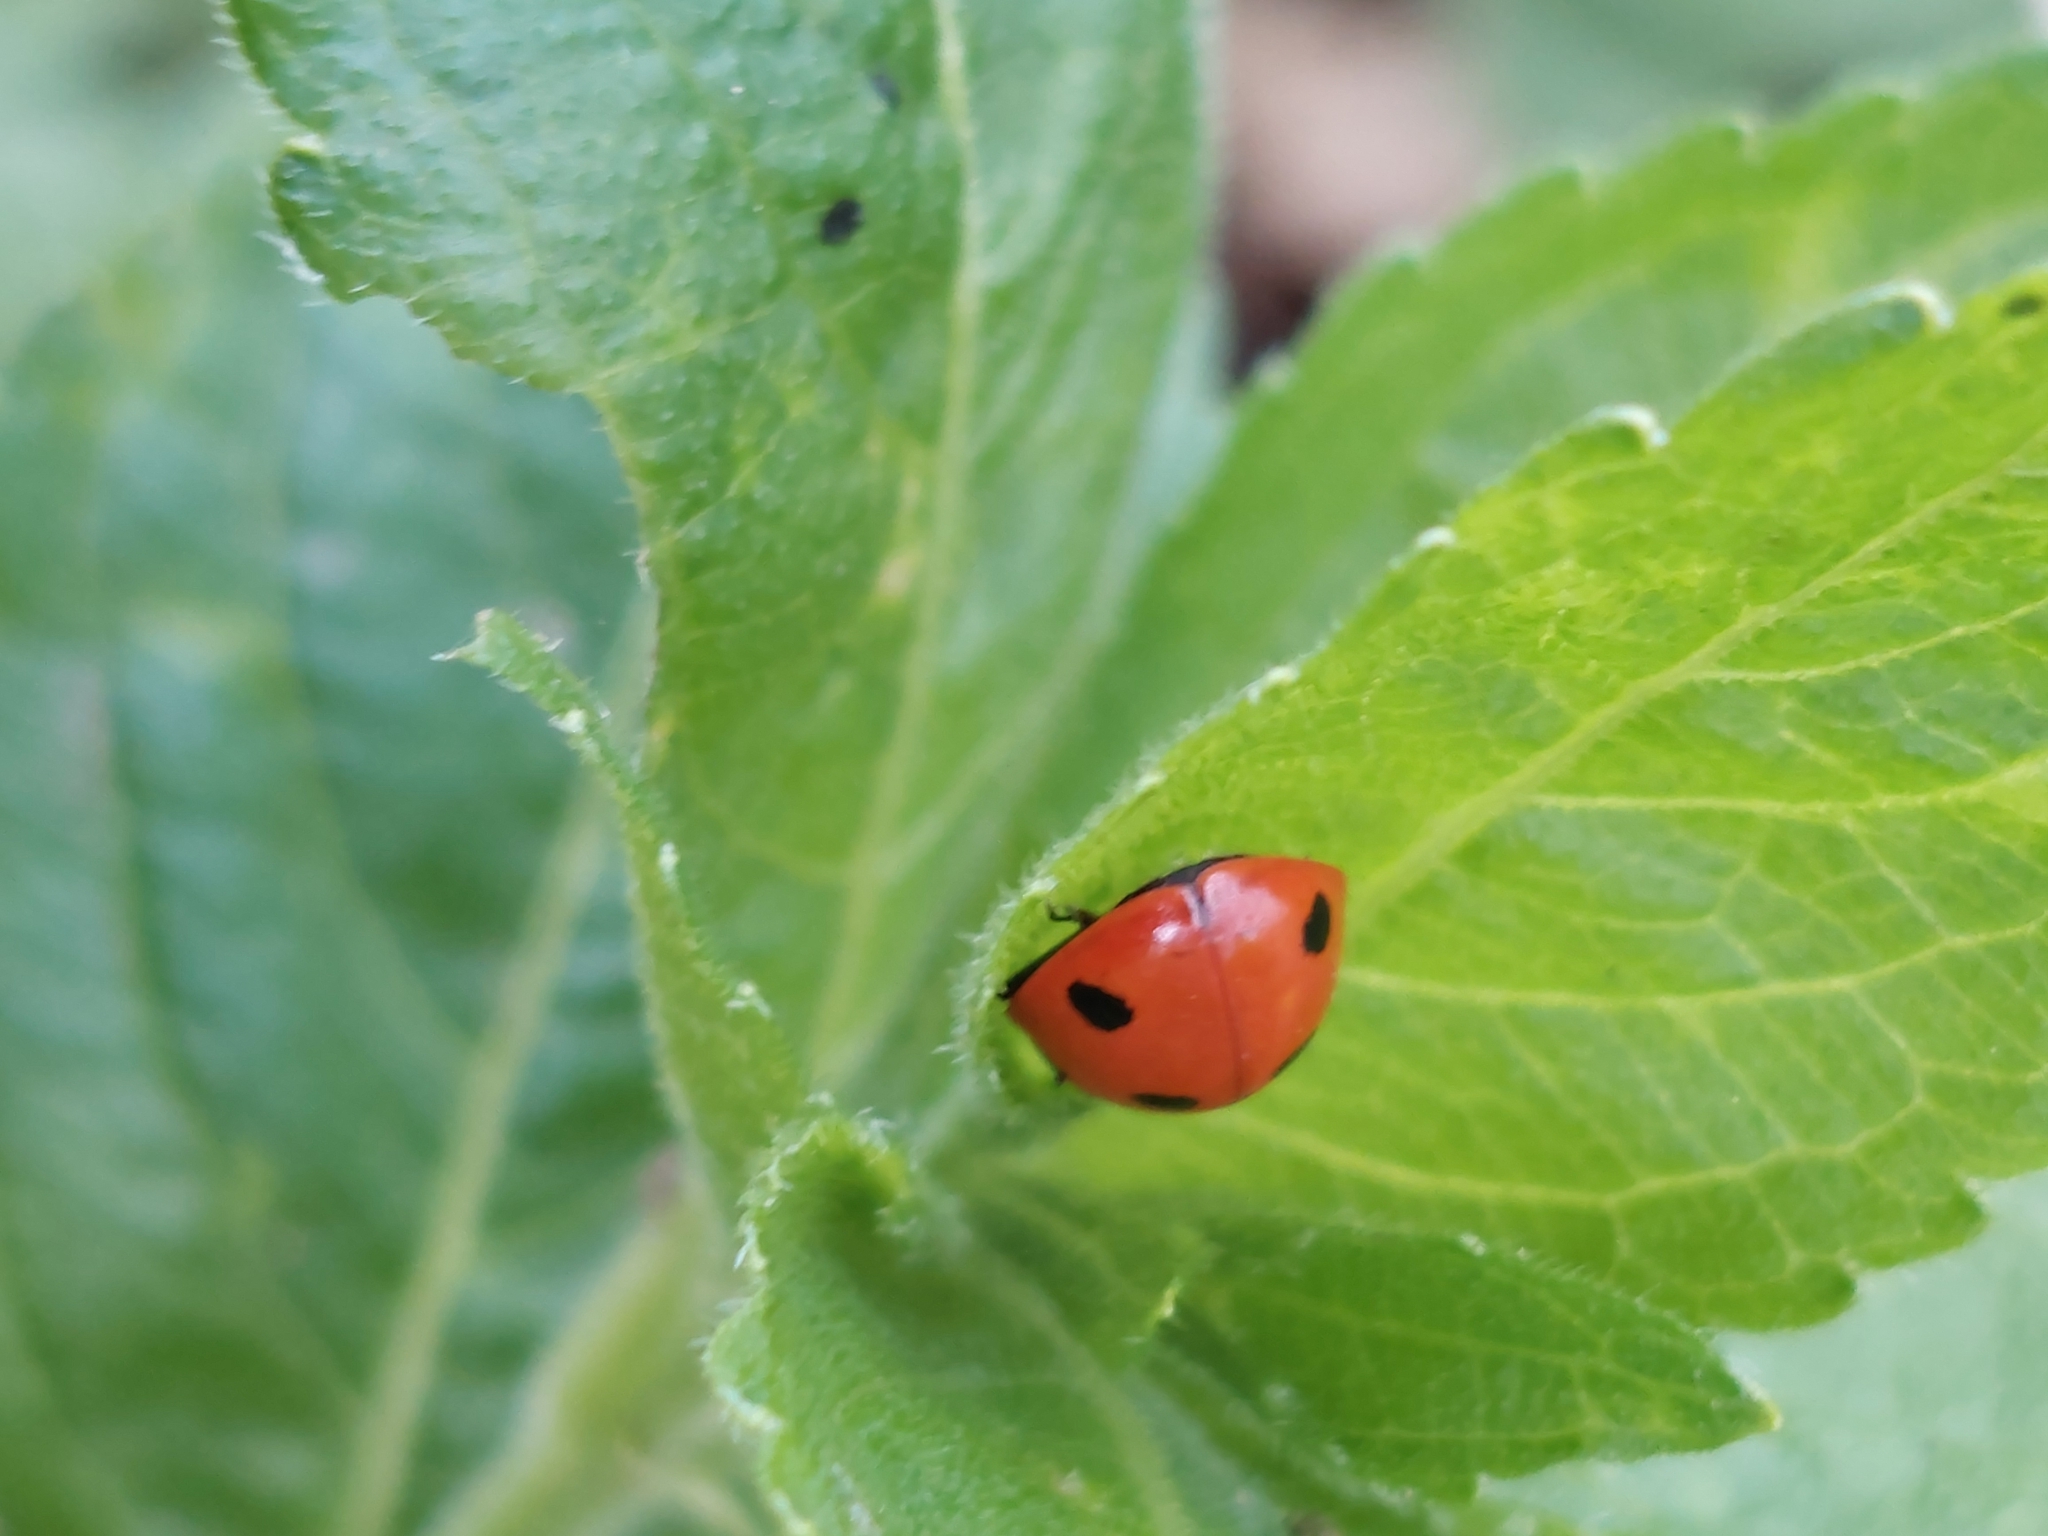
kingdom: Animalia
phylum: Arthropoda
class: Insecta
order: Coleoptera
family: Coccinellidae
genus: Coccinella
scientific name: Coccinella septempunctata
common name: Sevenspotted lady beetle
